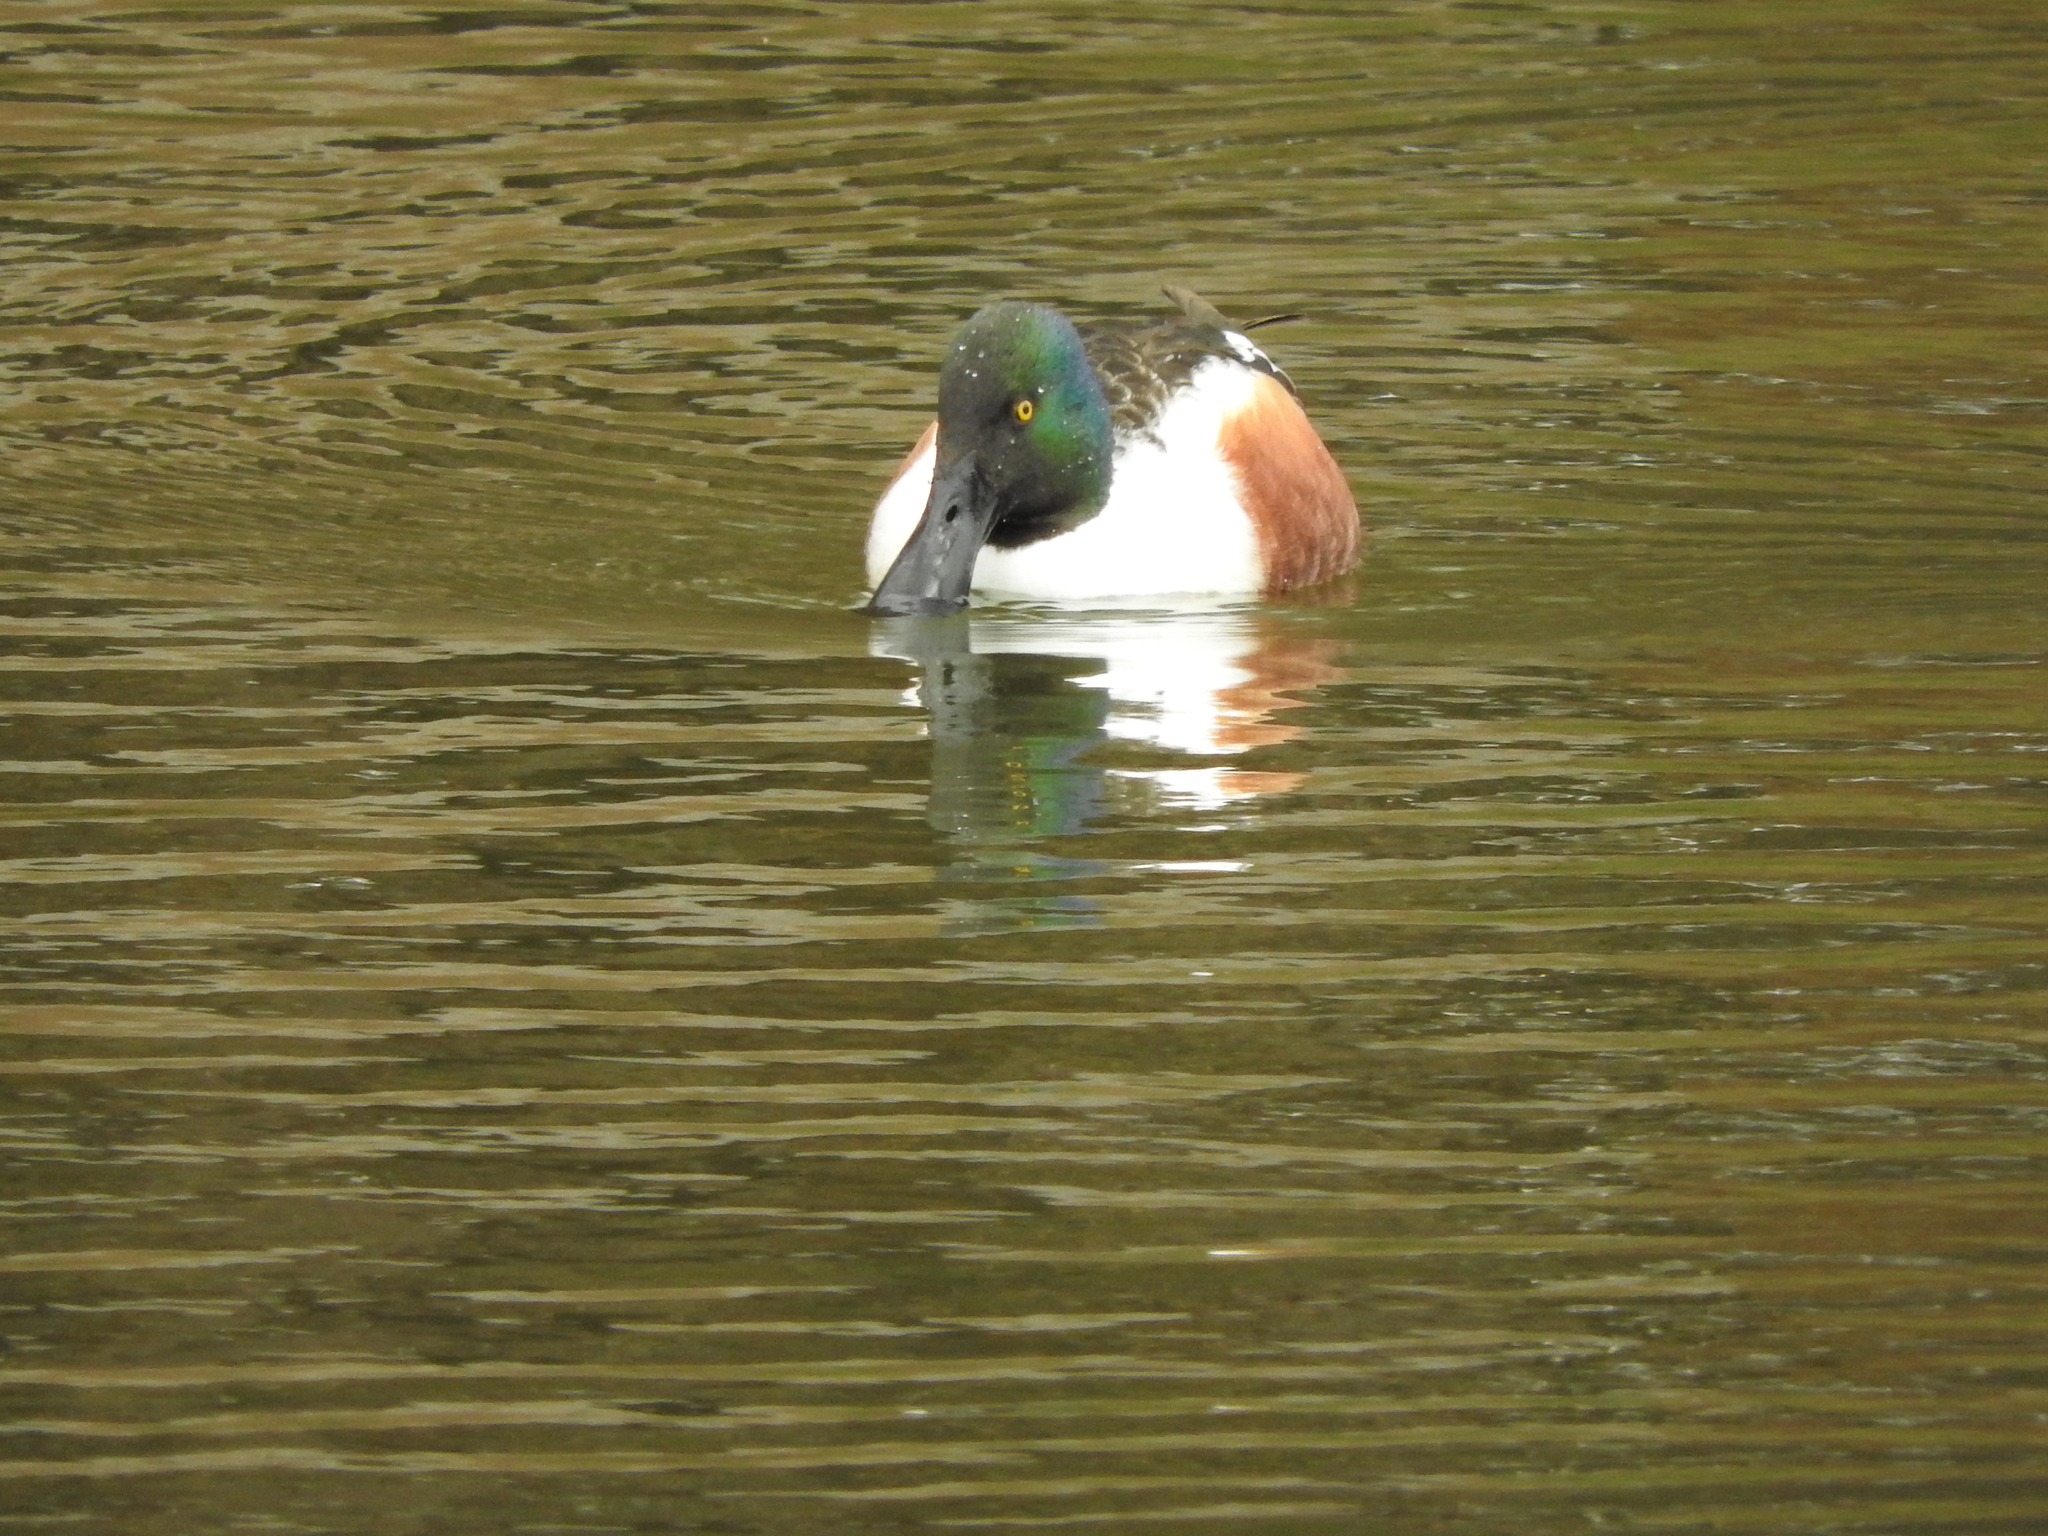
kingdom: Animalia
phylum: Chordata
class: Aves
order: Anseriformes
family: Anatidae
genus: Spatula
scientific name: Spatula clypeata
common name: Northern shoveler
